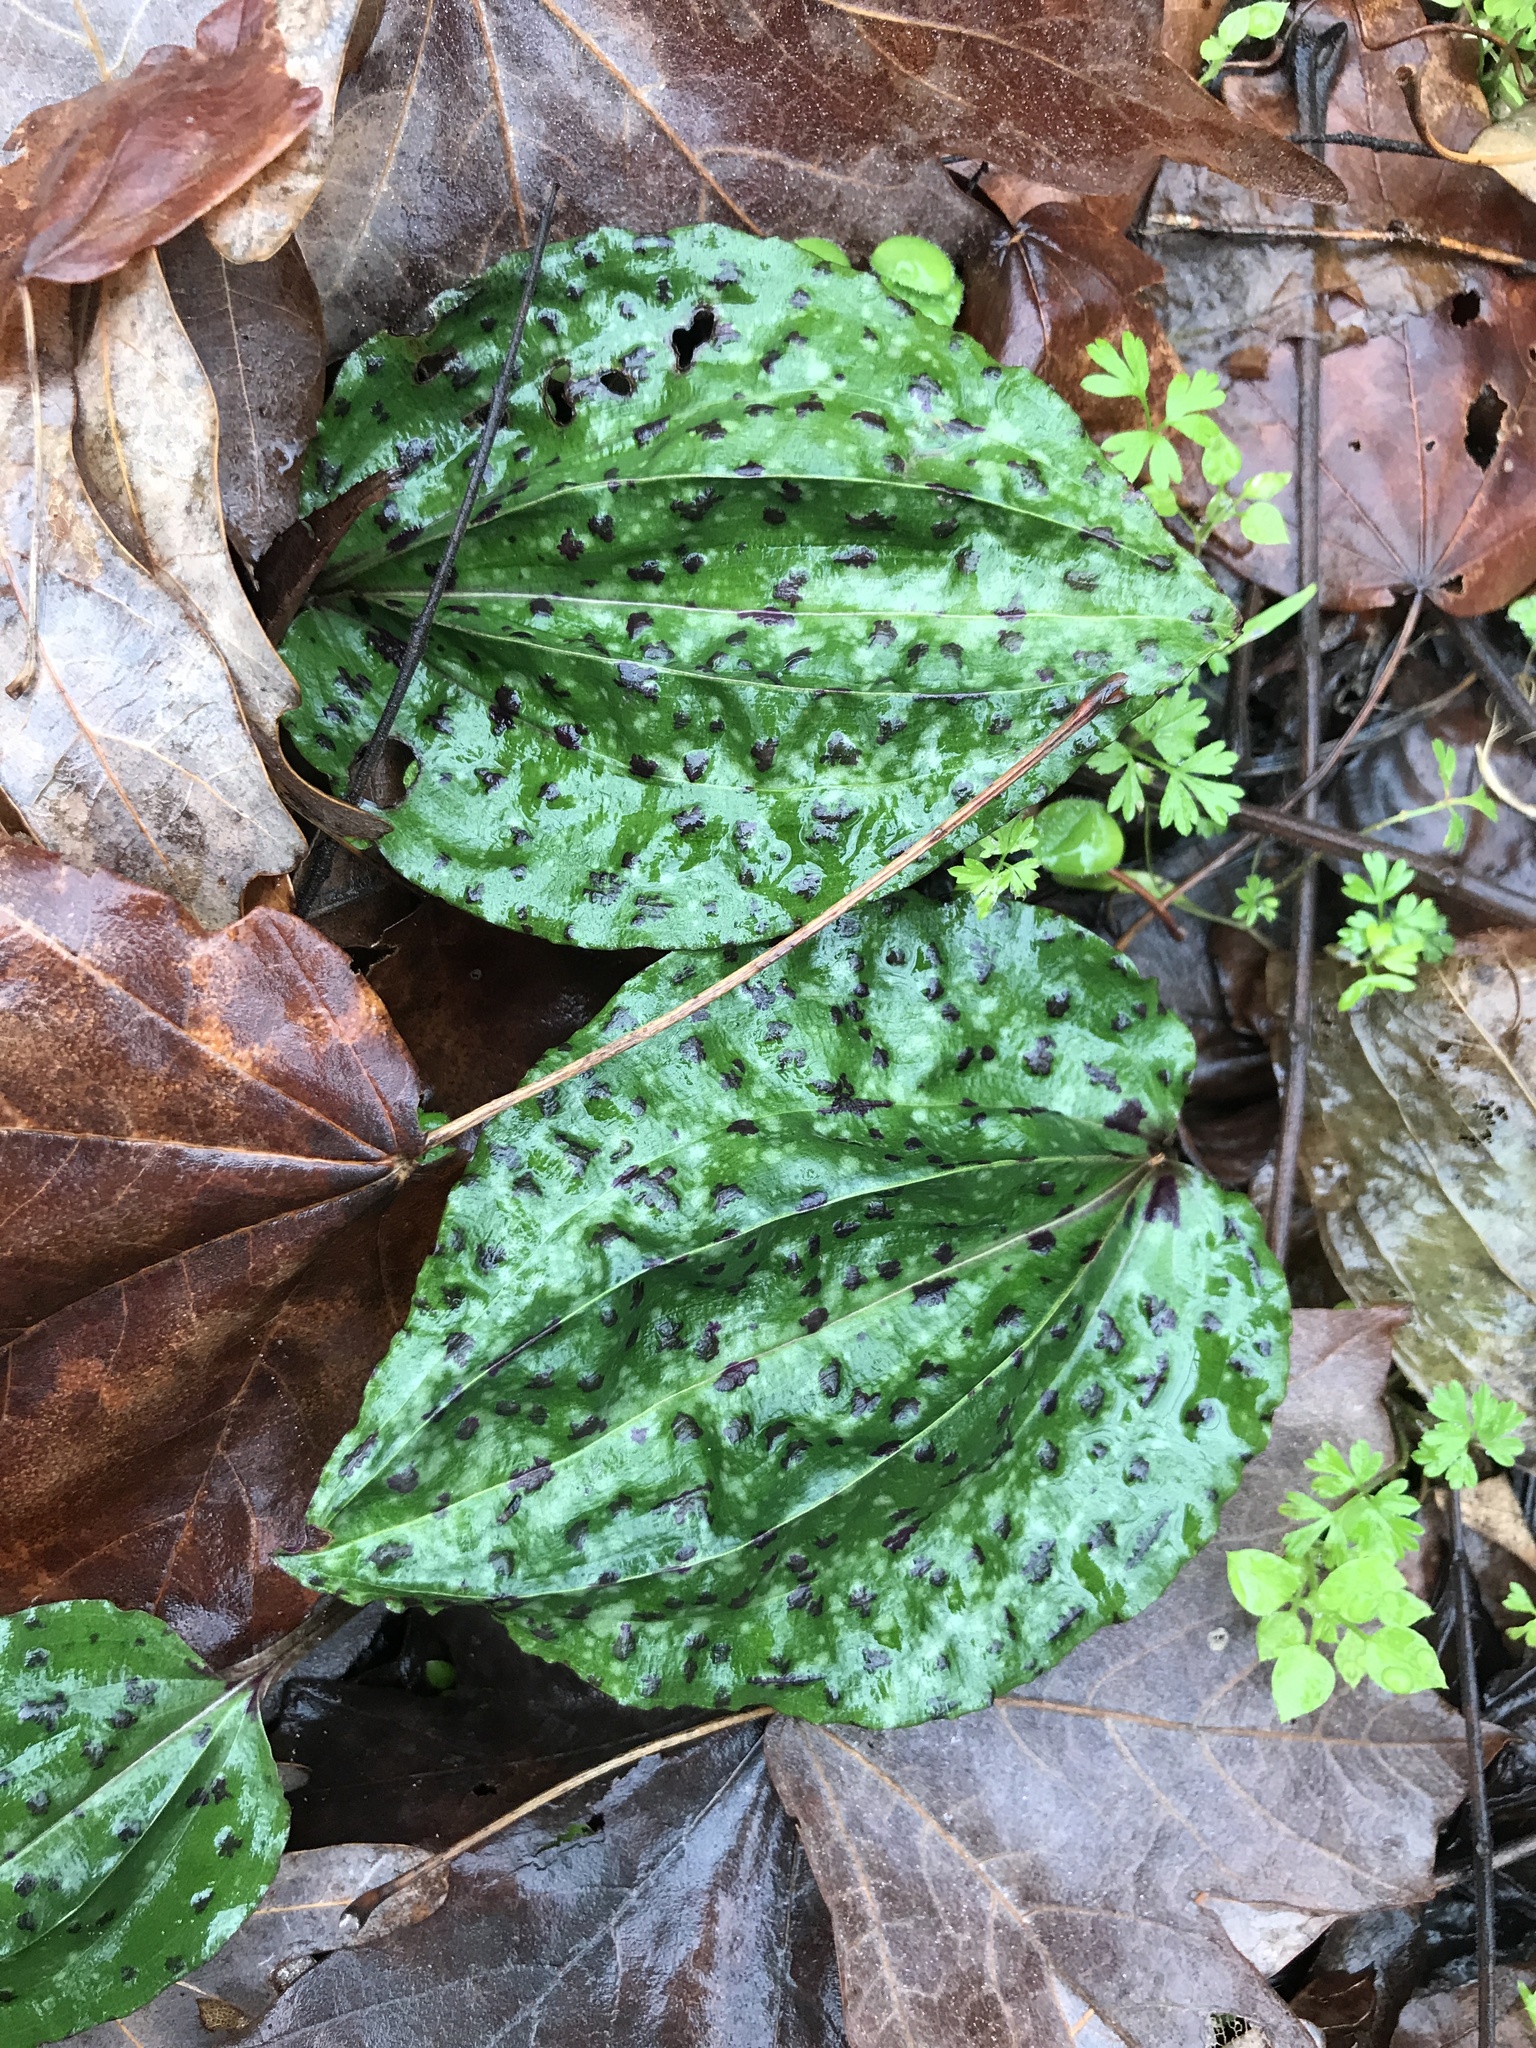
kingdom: Plantae
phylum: Tracheophyta
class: Liliopsida
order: Asparagales
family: Orchidaceae
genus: Tipularia
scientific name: Tipularia discolor
